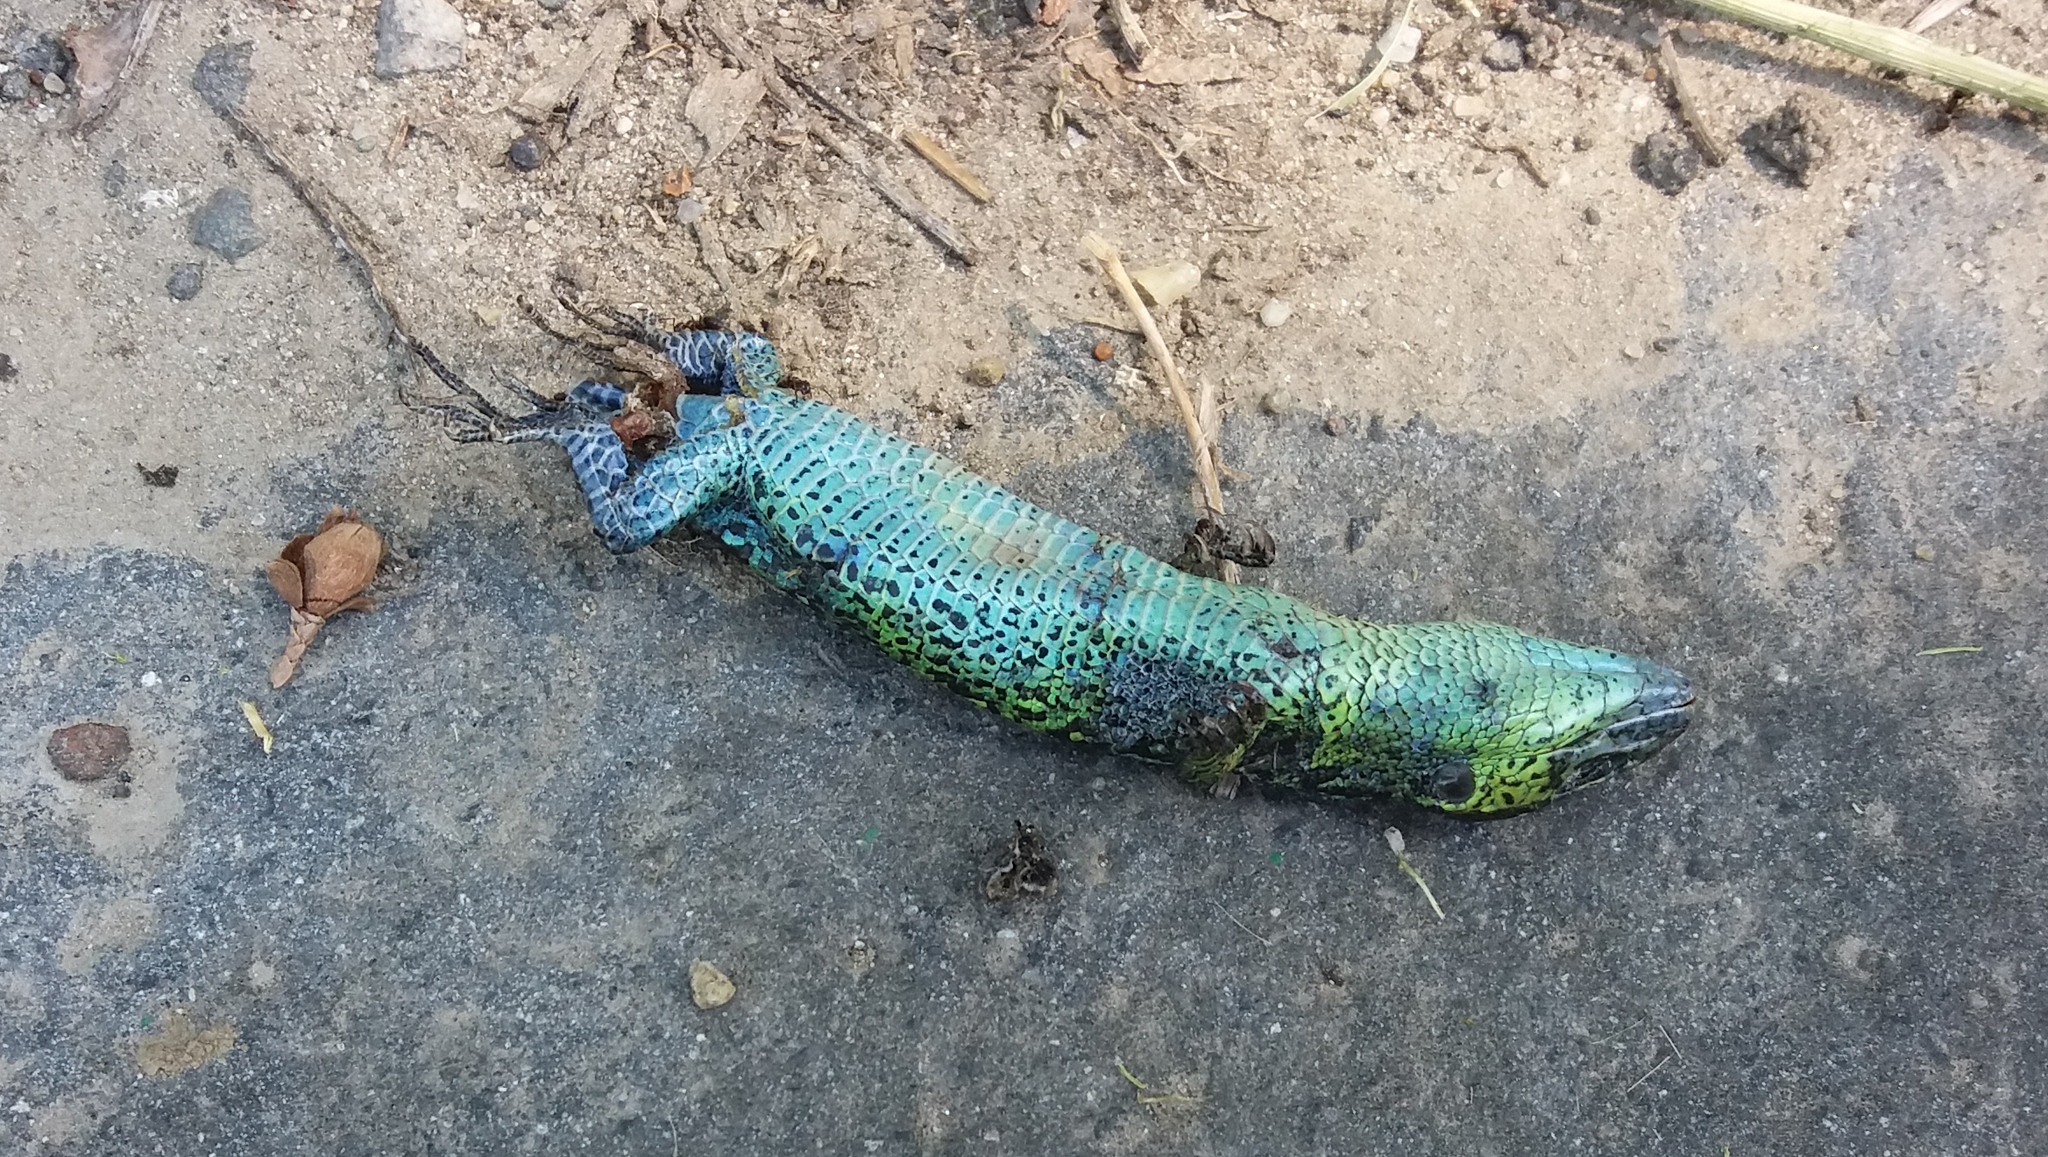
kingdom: Animalia
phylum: Chordata
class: Squamata
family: Lacertidae
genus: Lacerta
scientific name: Lacerta agilis
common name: Sand lizard
